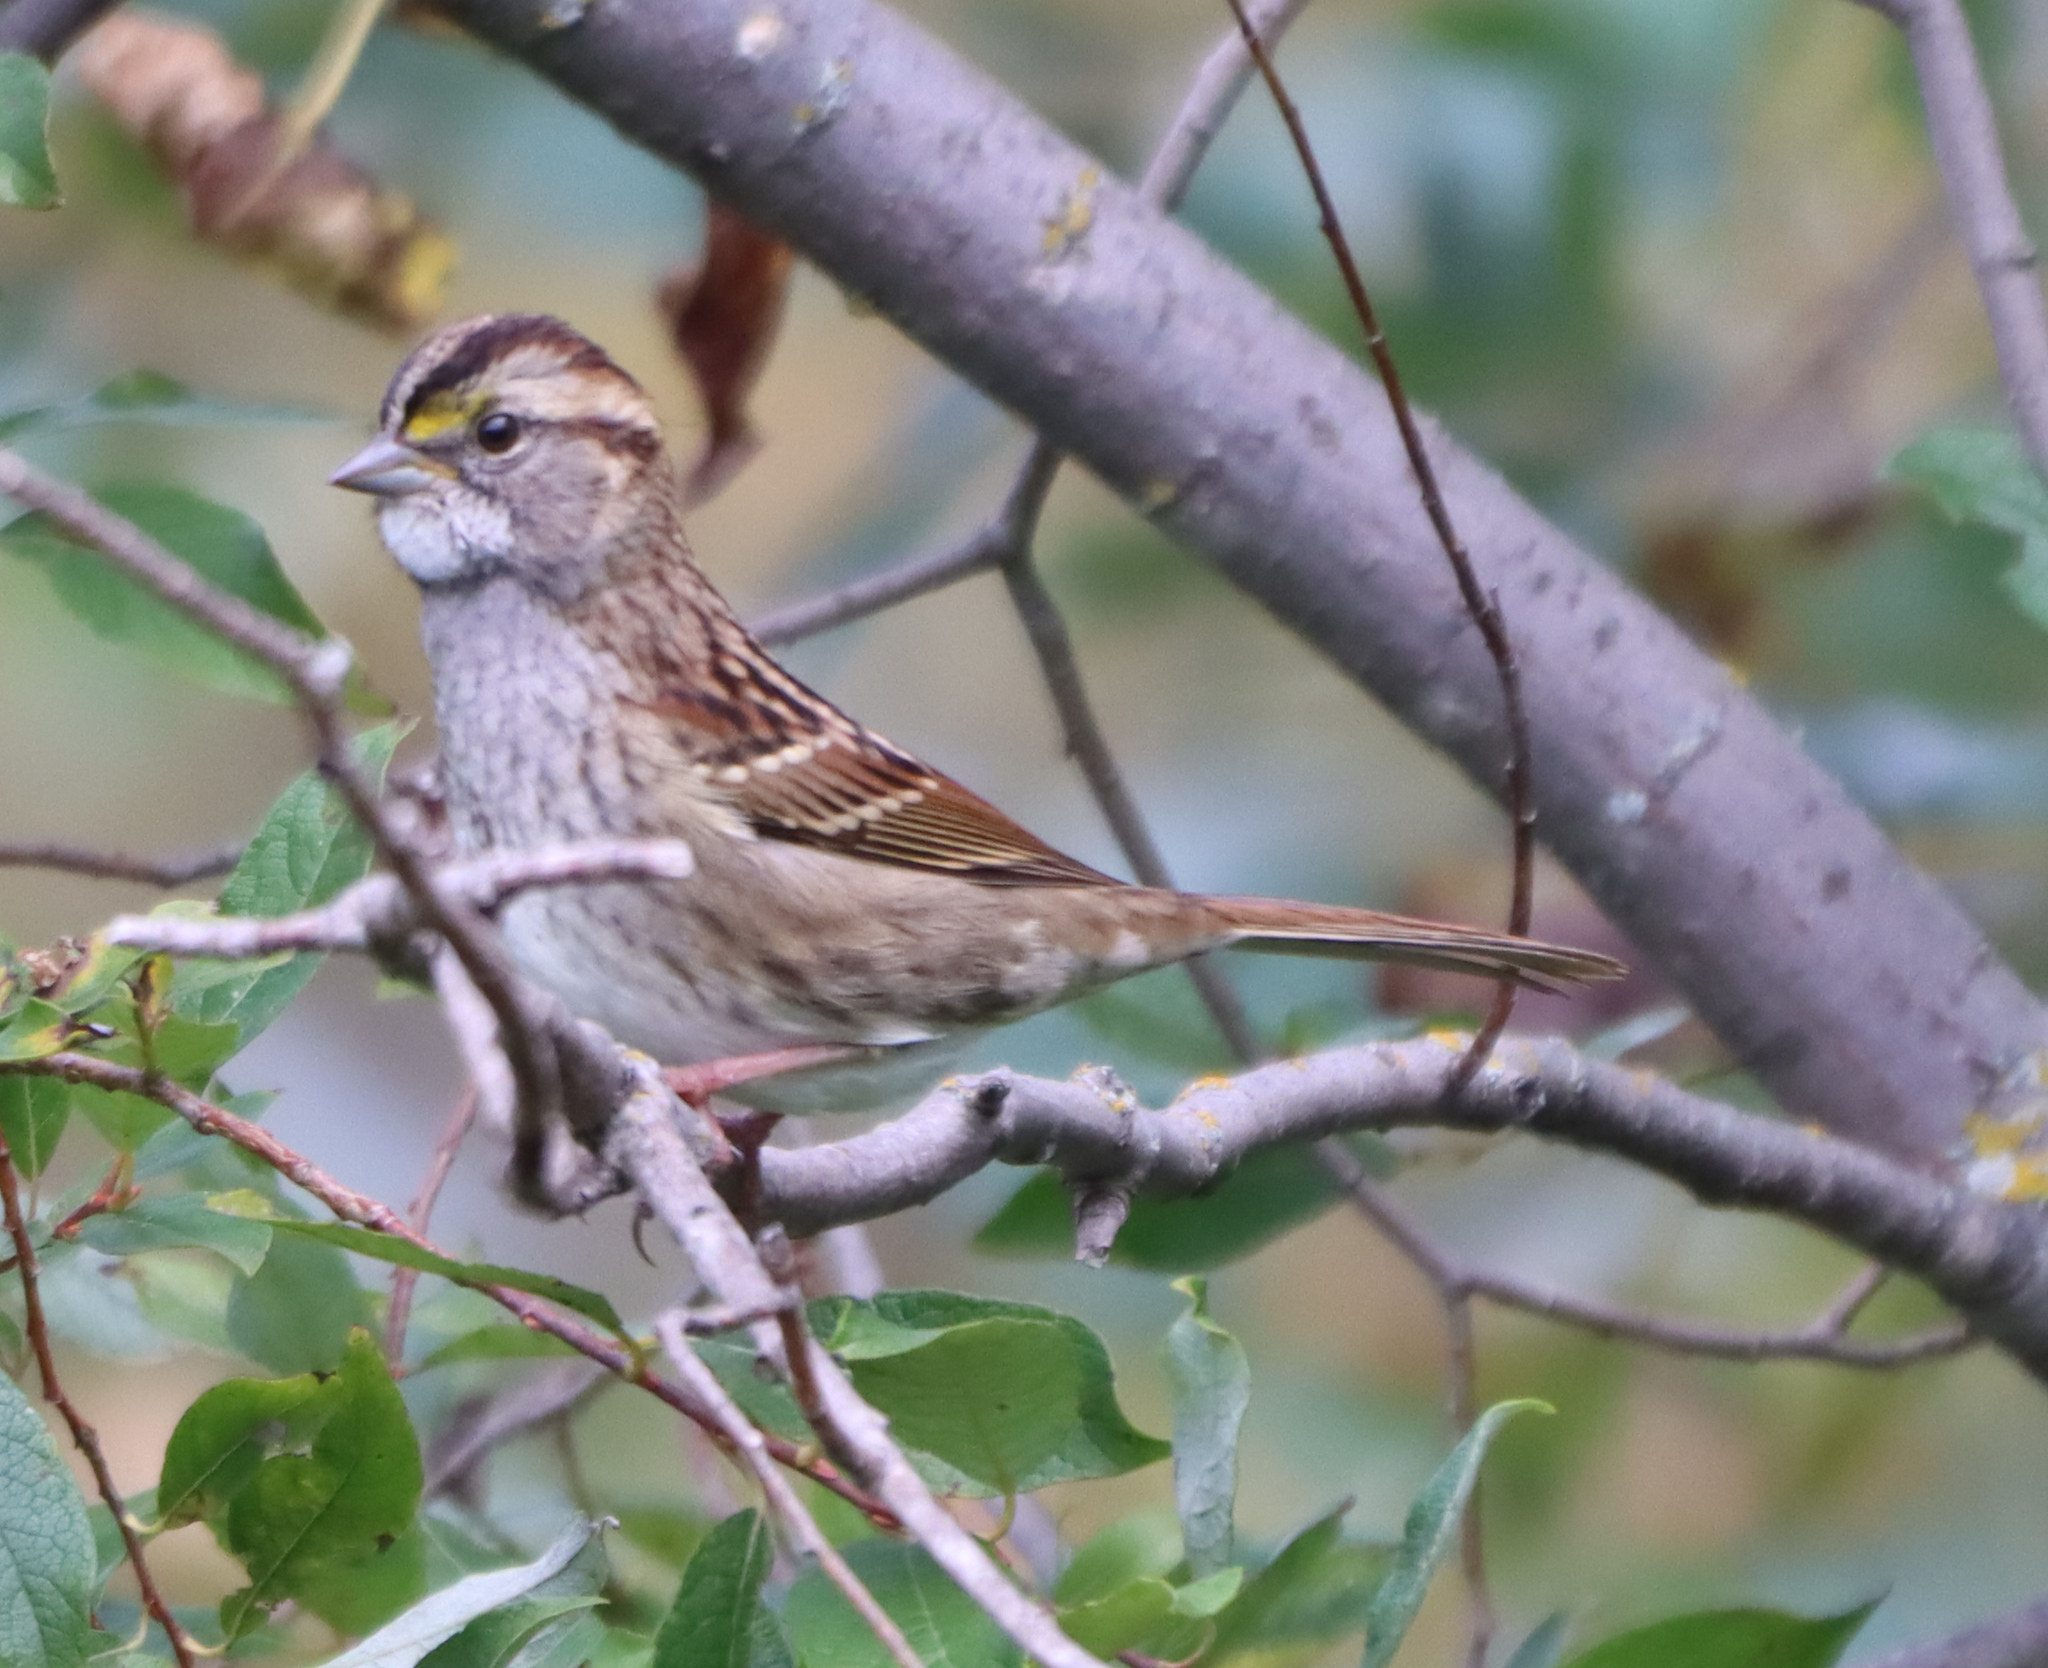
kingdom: Animalia
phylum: Chordata
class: Aves
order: Passeriformes
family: Passerellidae
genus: Zonotrichia
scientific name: Zonotrichia albicollis
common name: White-throated sparrow
